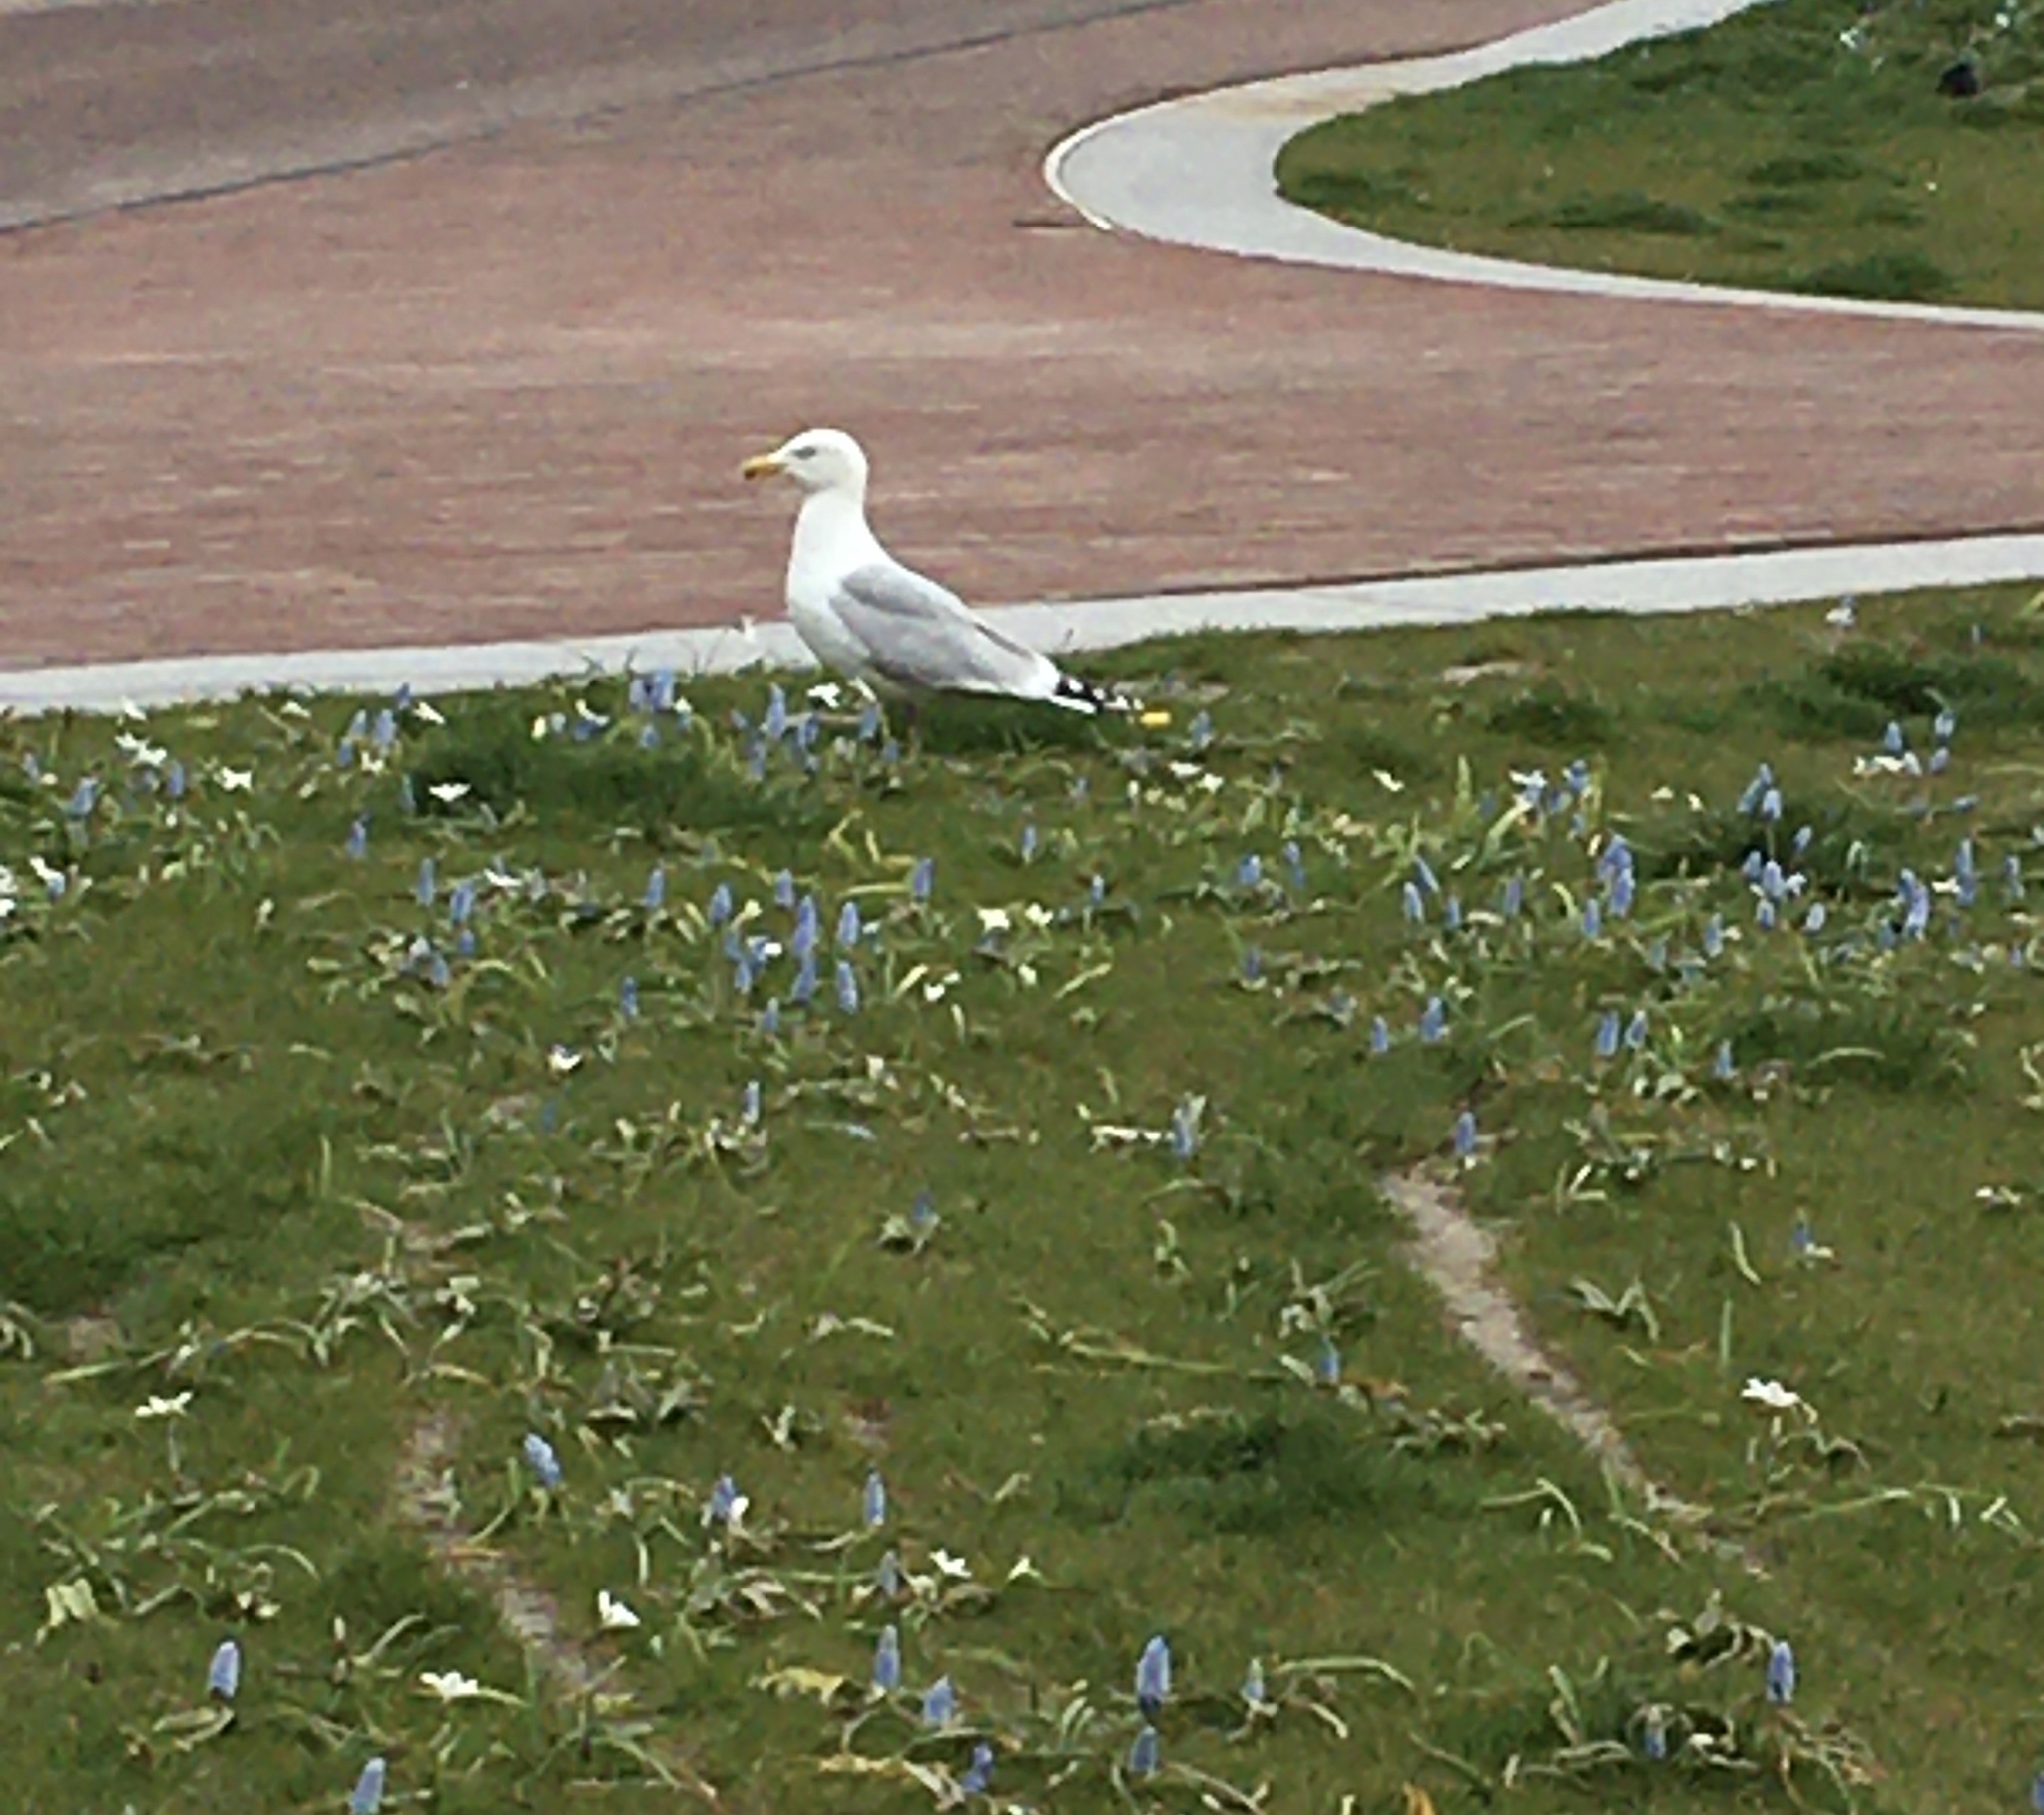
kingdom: Animalia
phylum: Chordata
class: Aves
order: Charadriiformes
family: Laridae
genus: Larus
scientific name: Larus argentatus
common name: Herring gull
